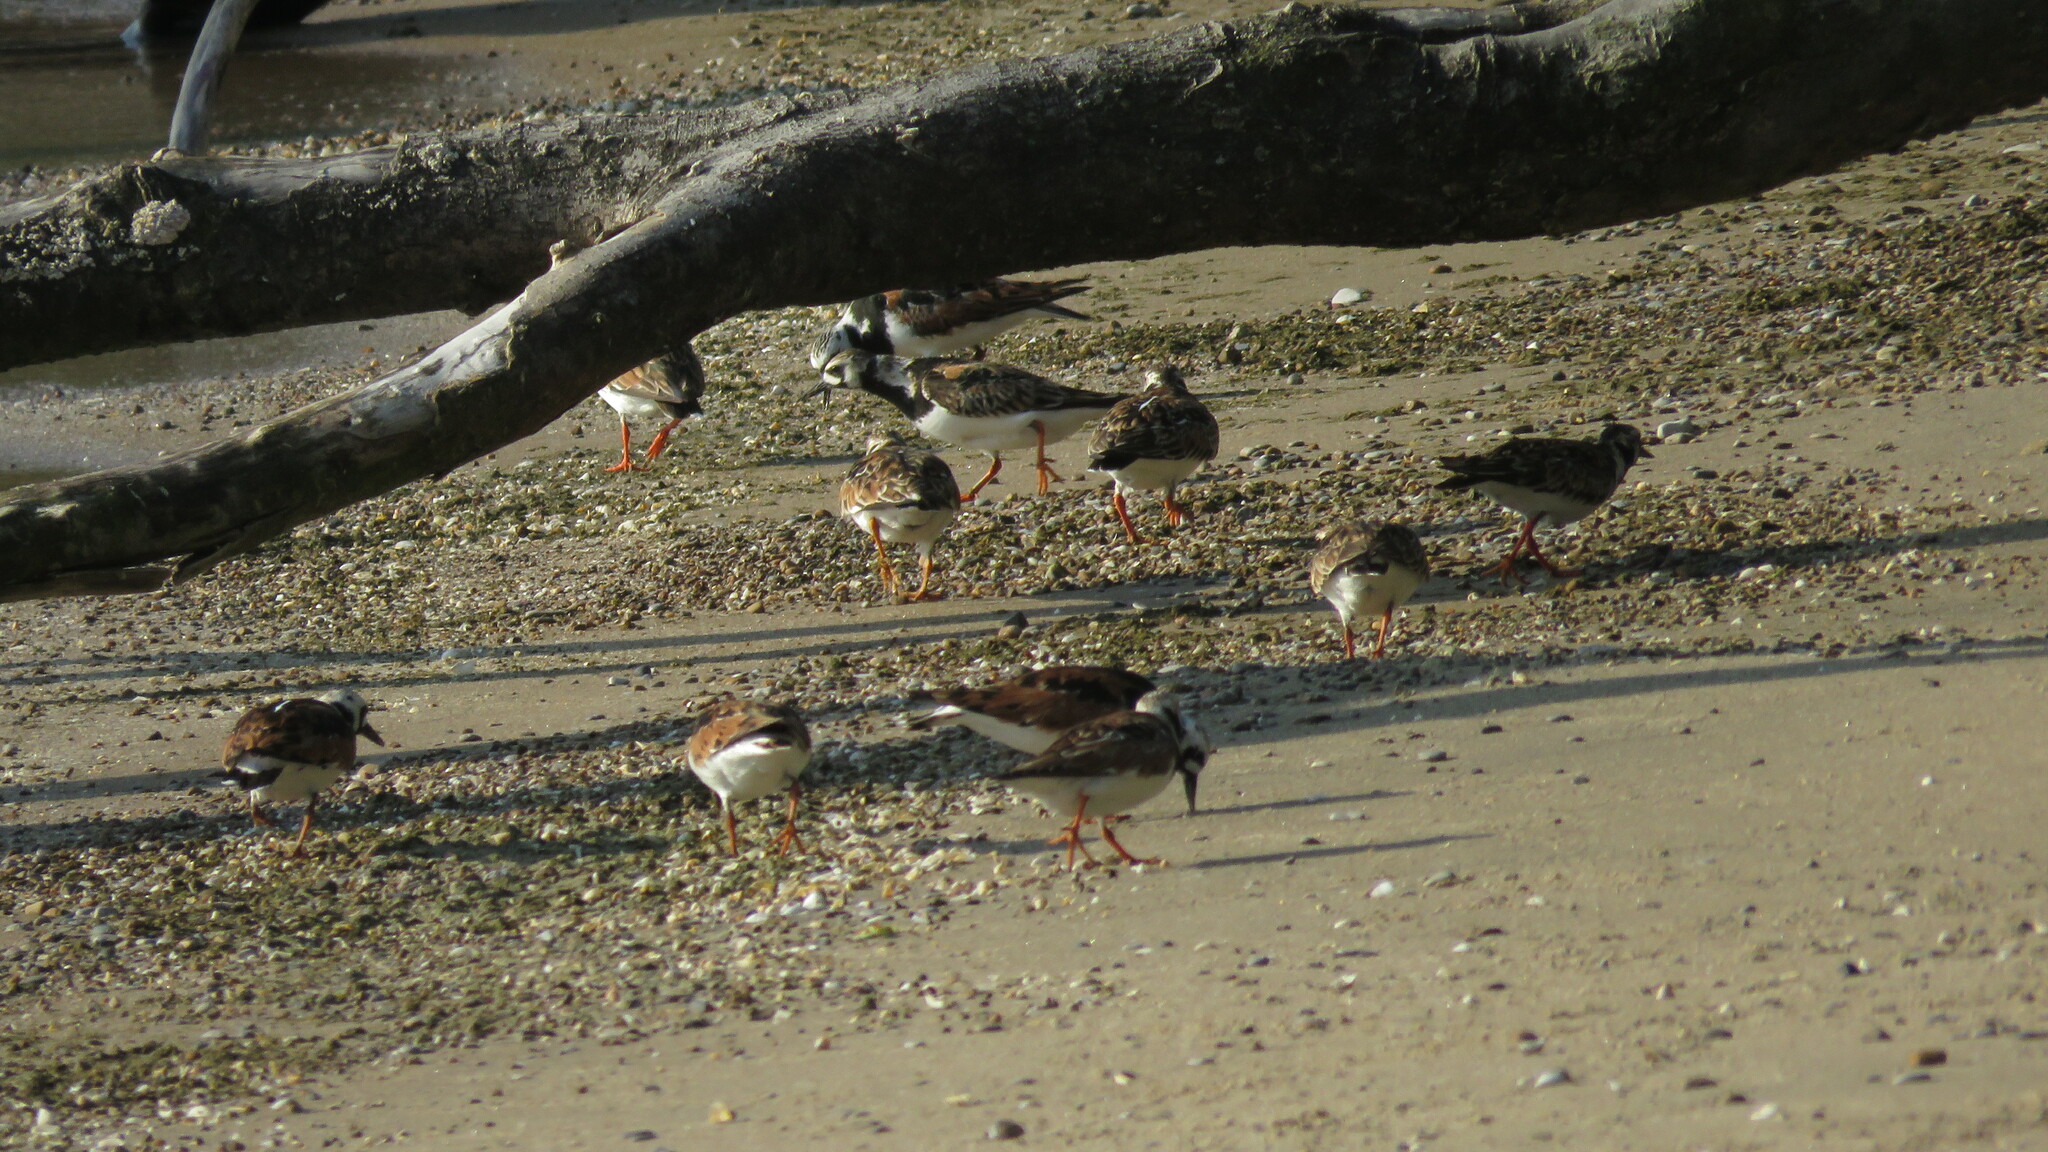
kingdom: Animalia
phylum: Chordata
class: Aves
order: Charadriiformes
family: Scolopacidae
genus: Arenaria
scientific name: Arenaria interpres
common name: Ruddy turnstone
